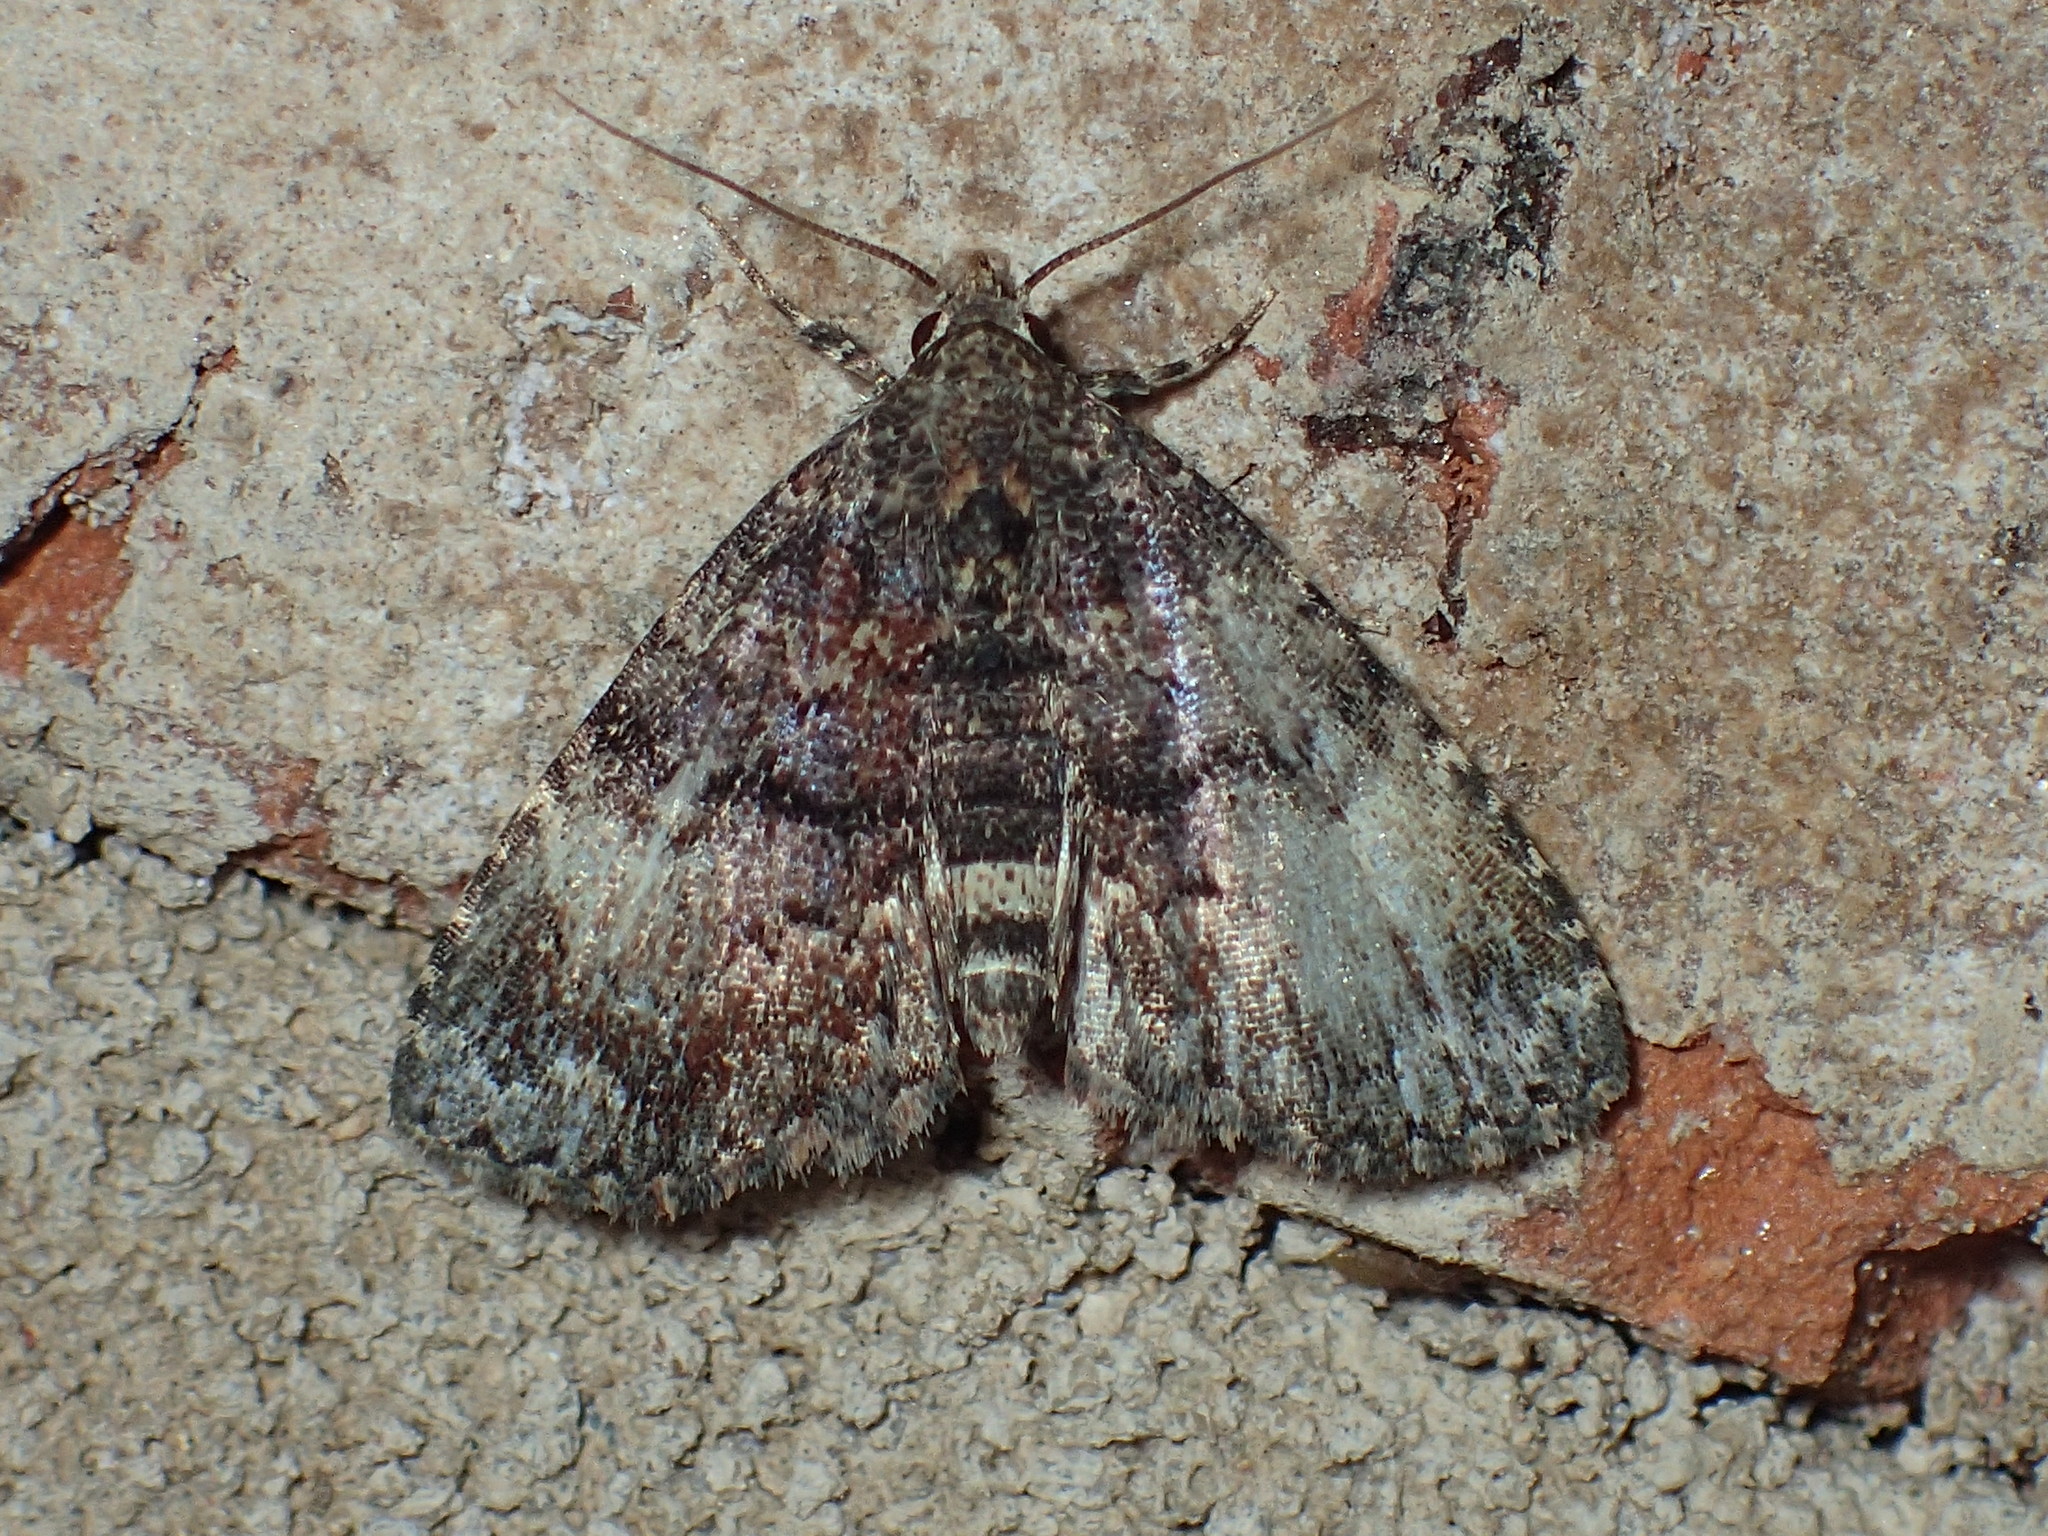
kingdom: Animalia
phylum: Arthropoda
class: Insecta
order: Lepidoptera
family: Erebidae
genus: Metalectra
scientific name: Metalectra richardsi
